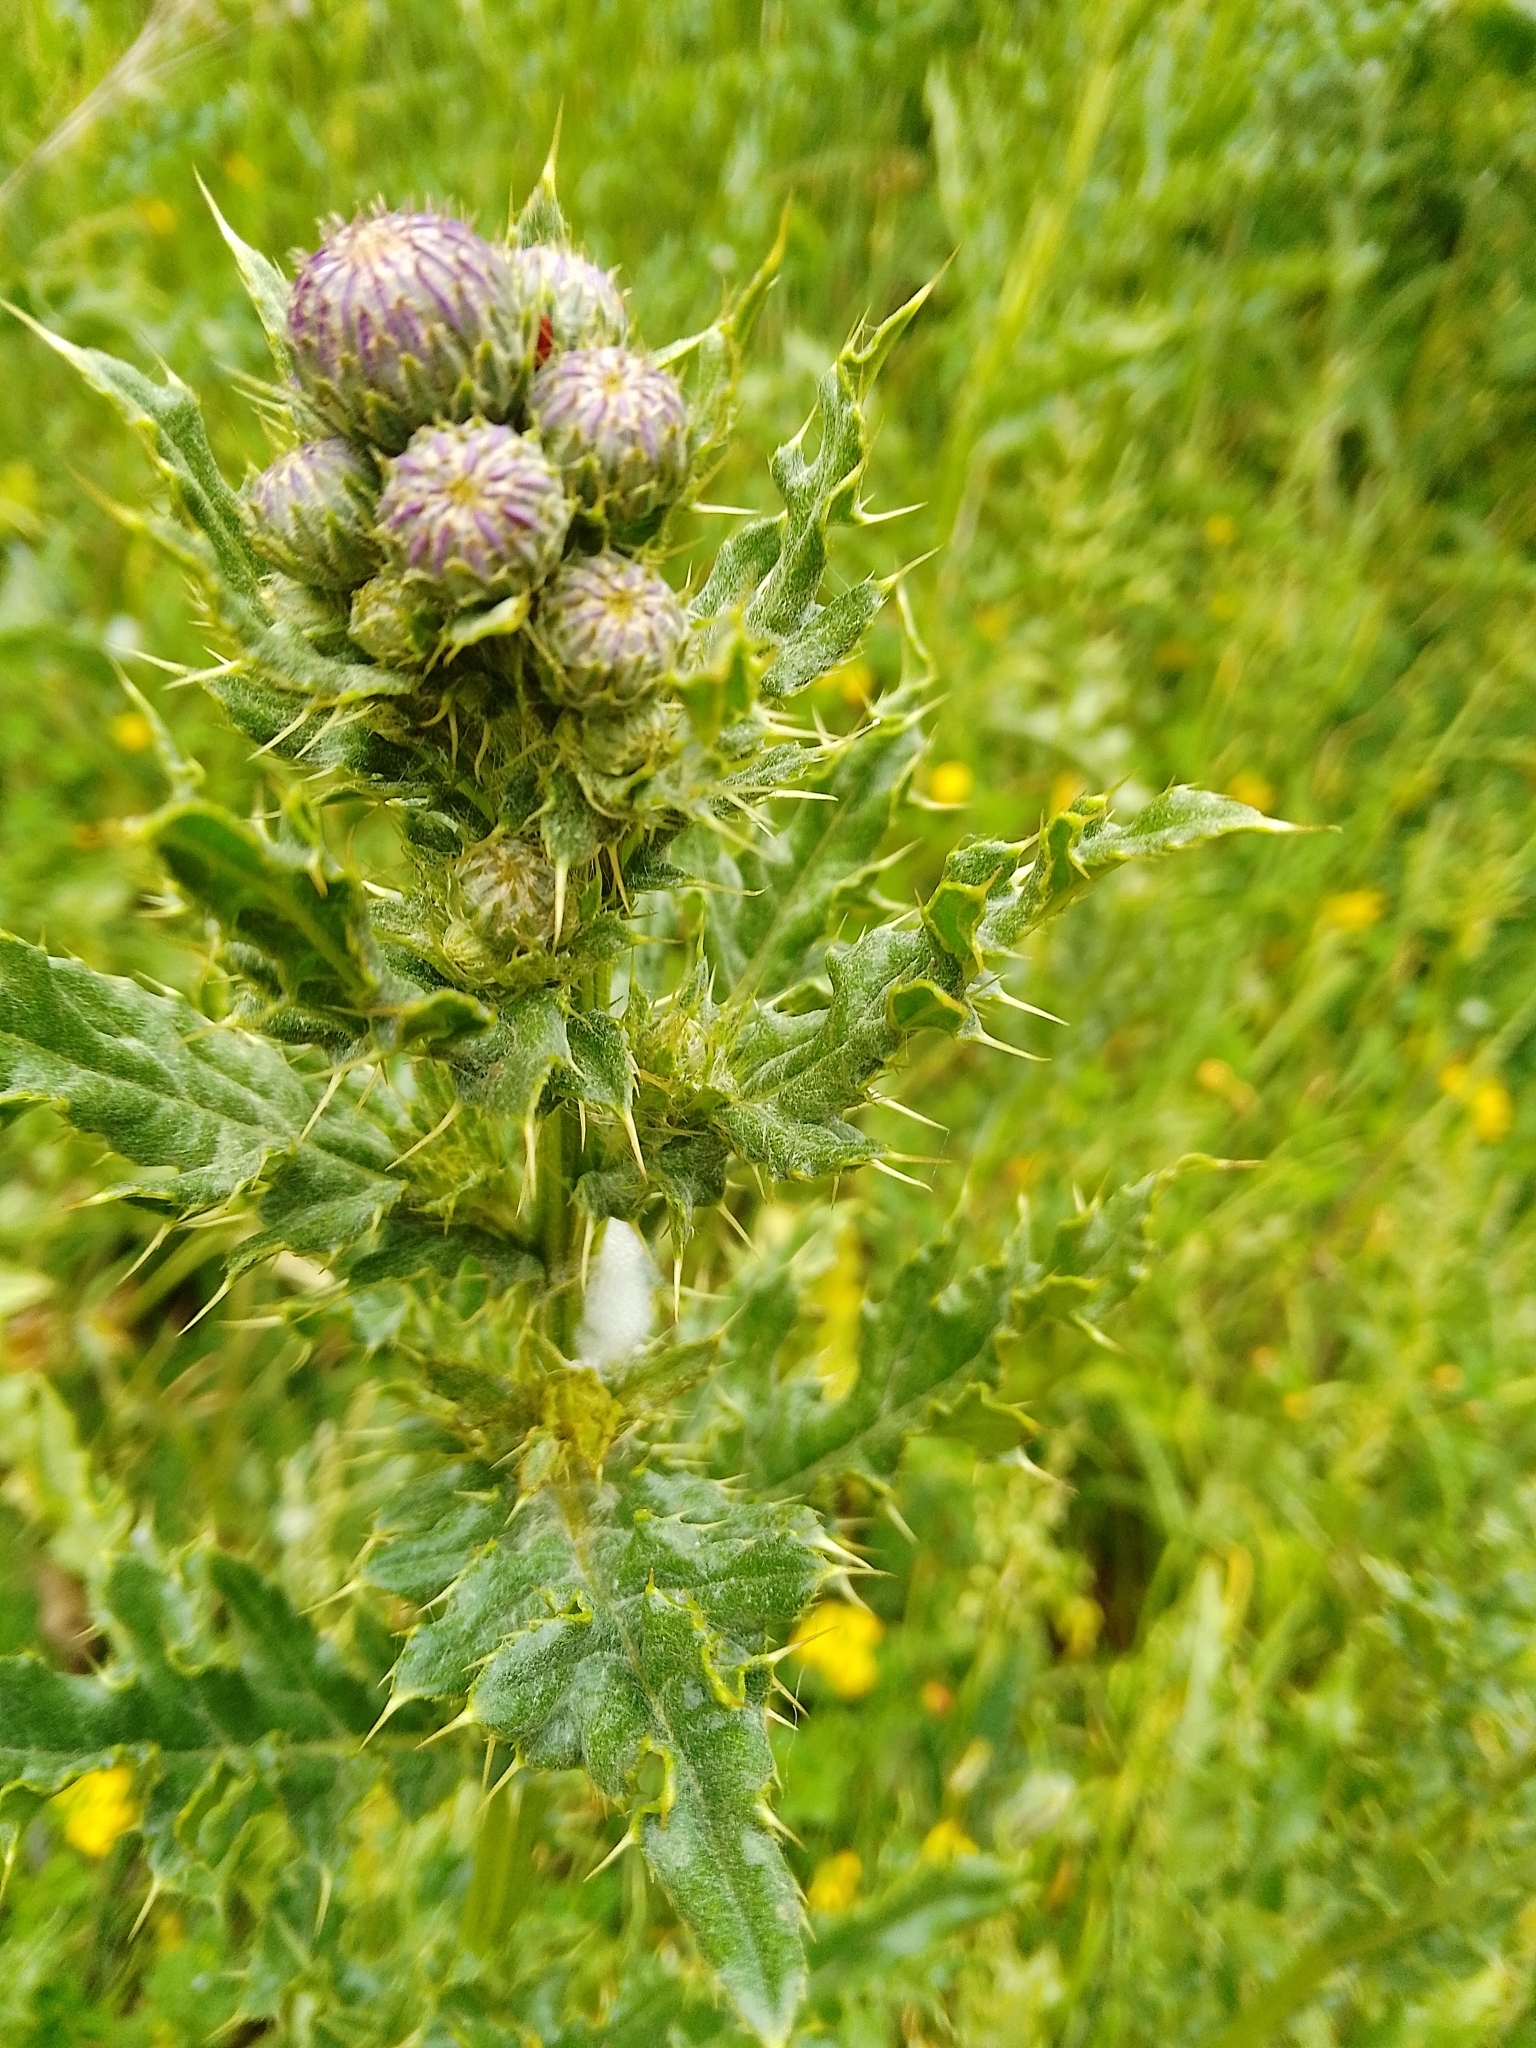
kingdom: Plantae
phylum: Tracheophyta
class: Magnoliopsida
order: Asterales
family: Asteraceae
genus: Cirsium
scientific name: Cirsium arvense
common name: Creeping thistle
